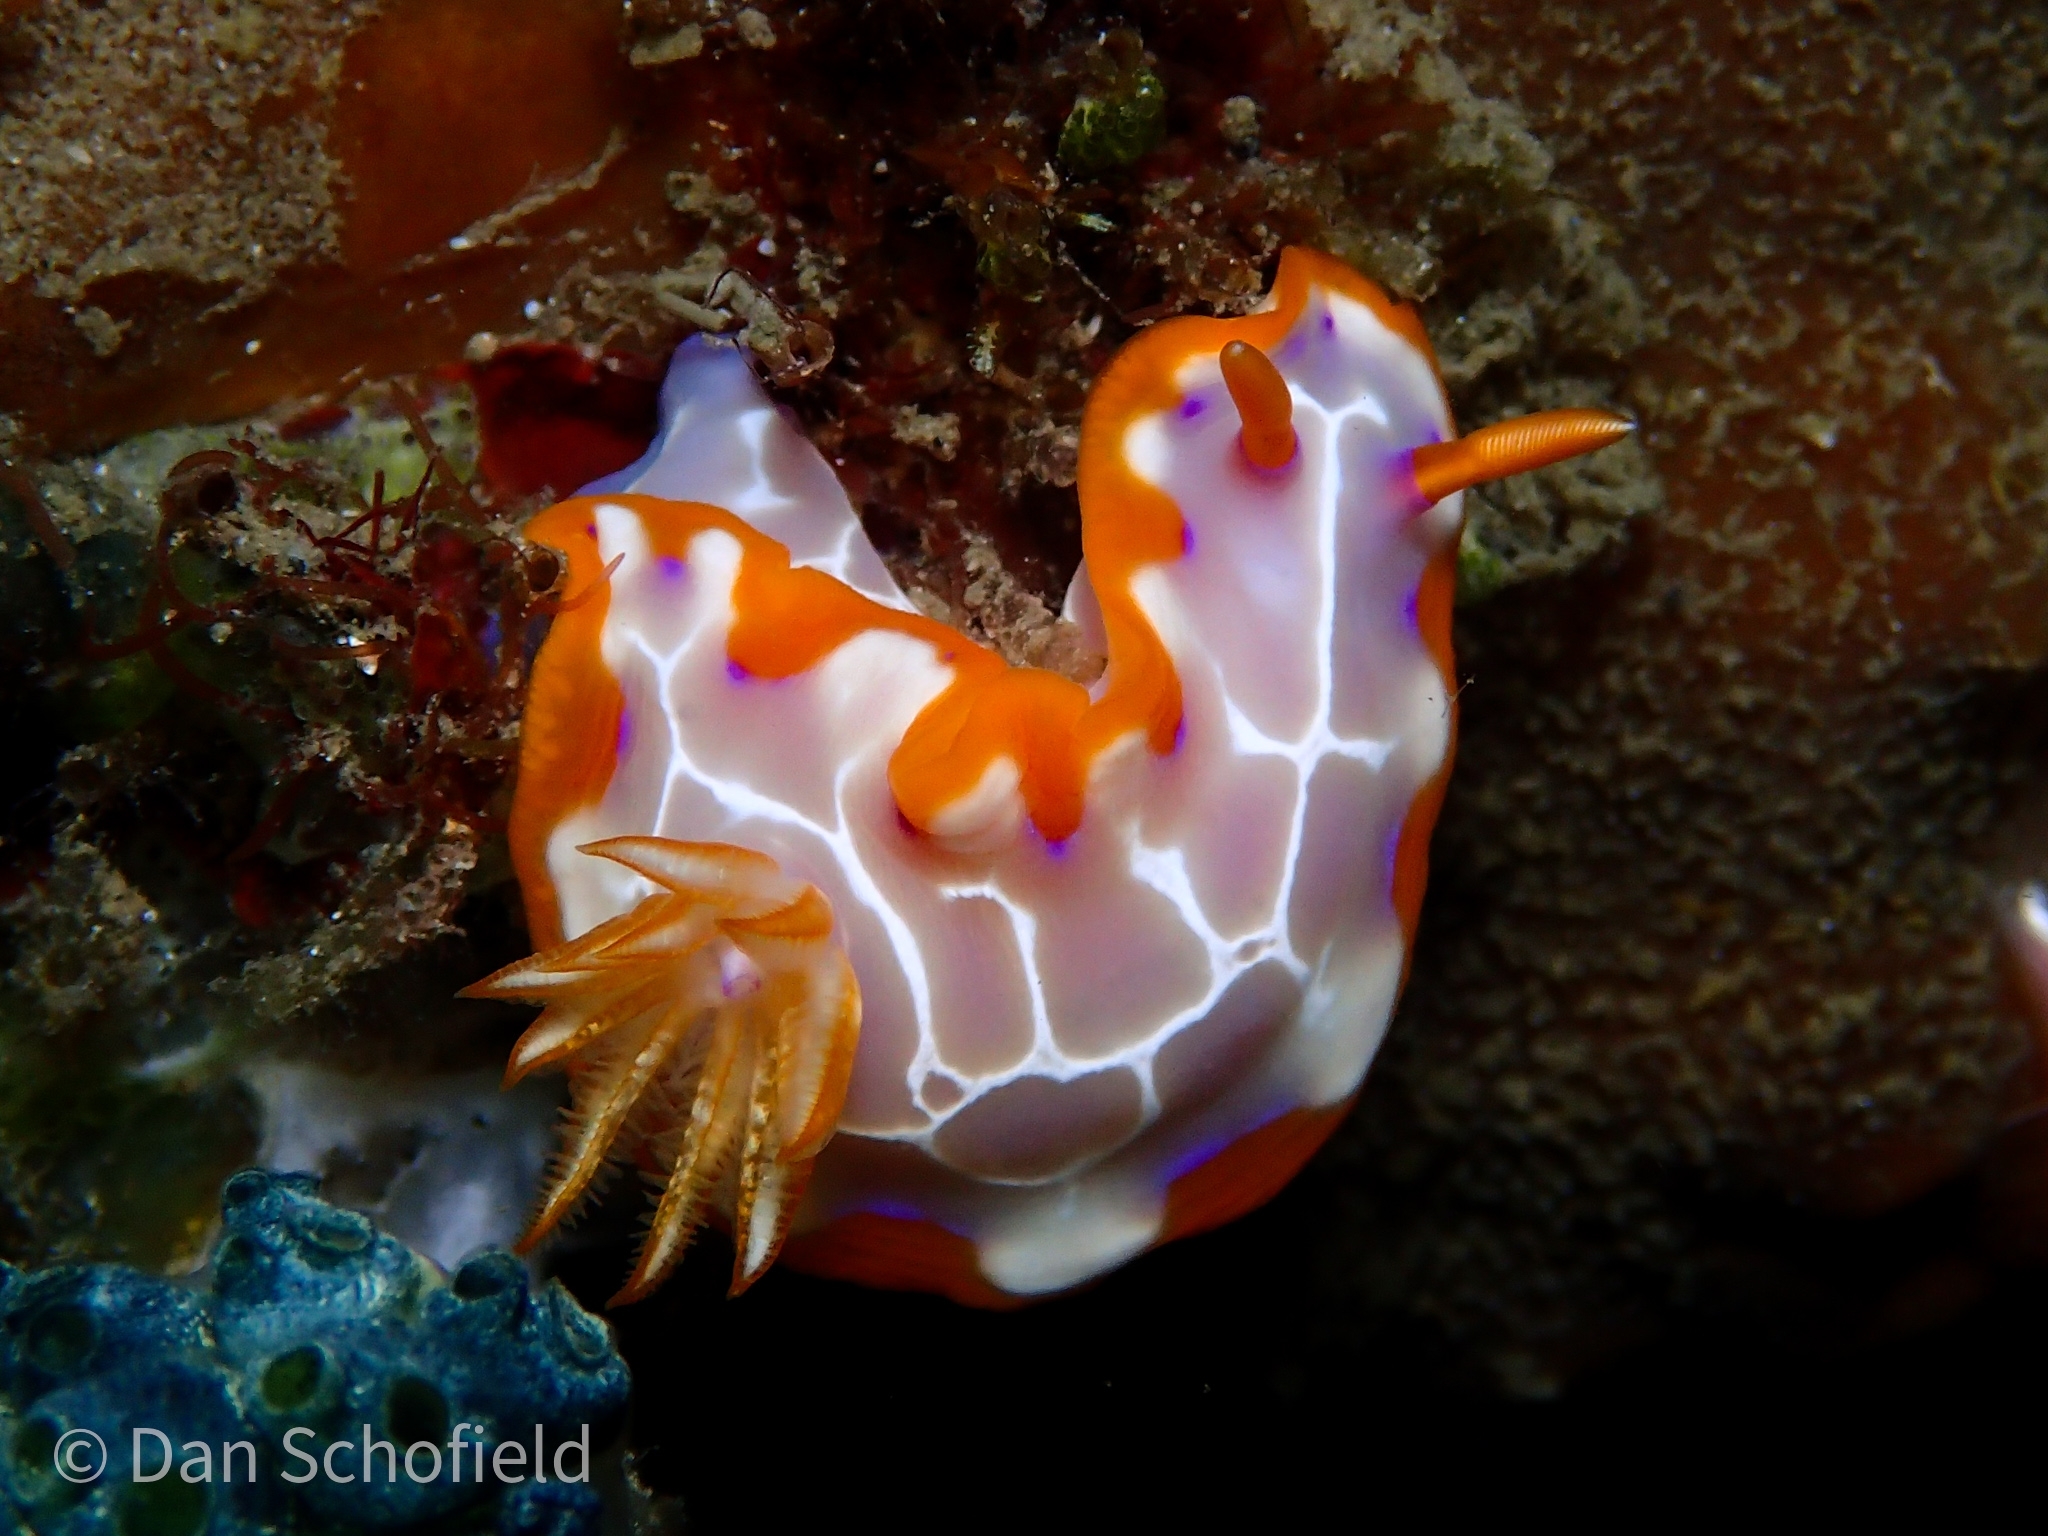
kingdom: Animalia
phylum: Mollusca
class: Gastropoda
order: Nudibranchia
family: Chromodorididae
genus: Hypselodoris
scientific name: Hypselodoris iacula
